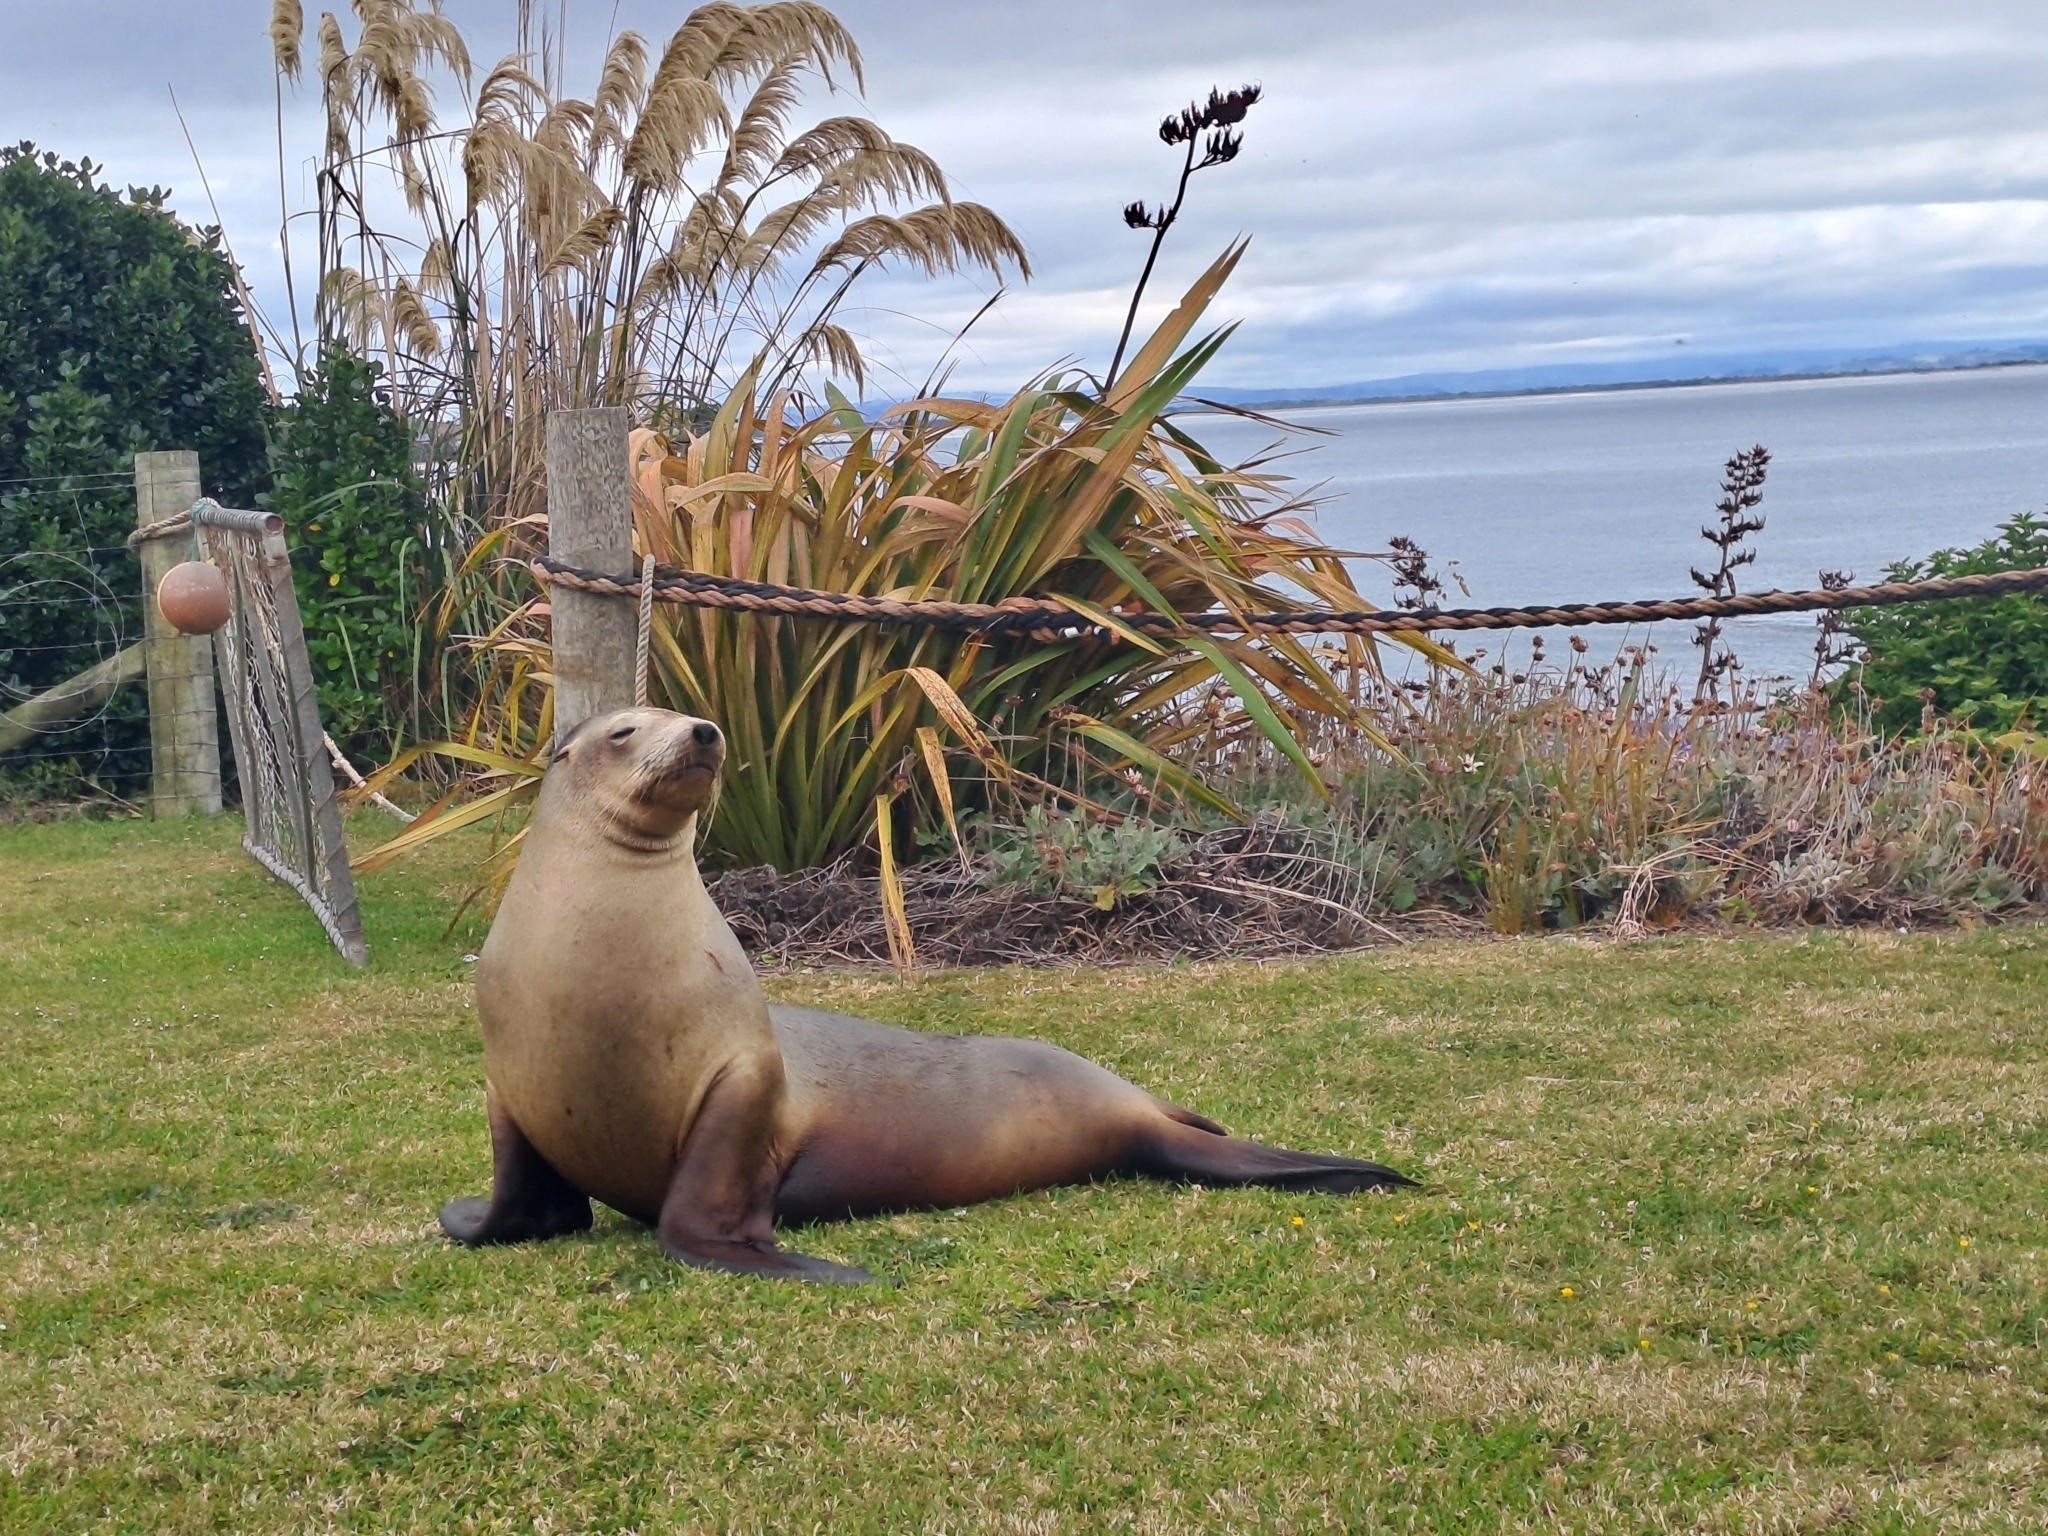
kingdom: Animalia
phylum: Chordata
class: Mammalia
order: Carnivora
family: Otariidae
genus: Phocarctos
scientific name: Phocarctos hookeri
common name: New zealand sea lion
